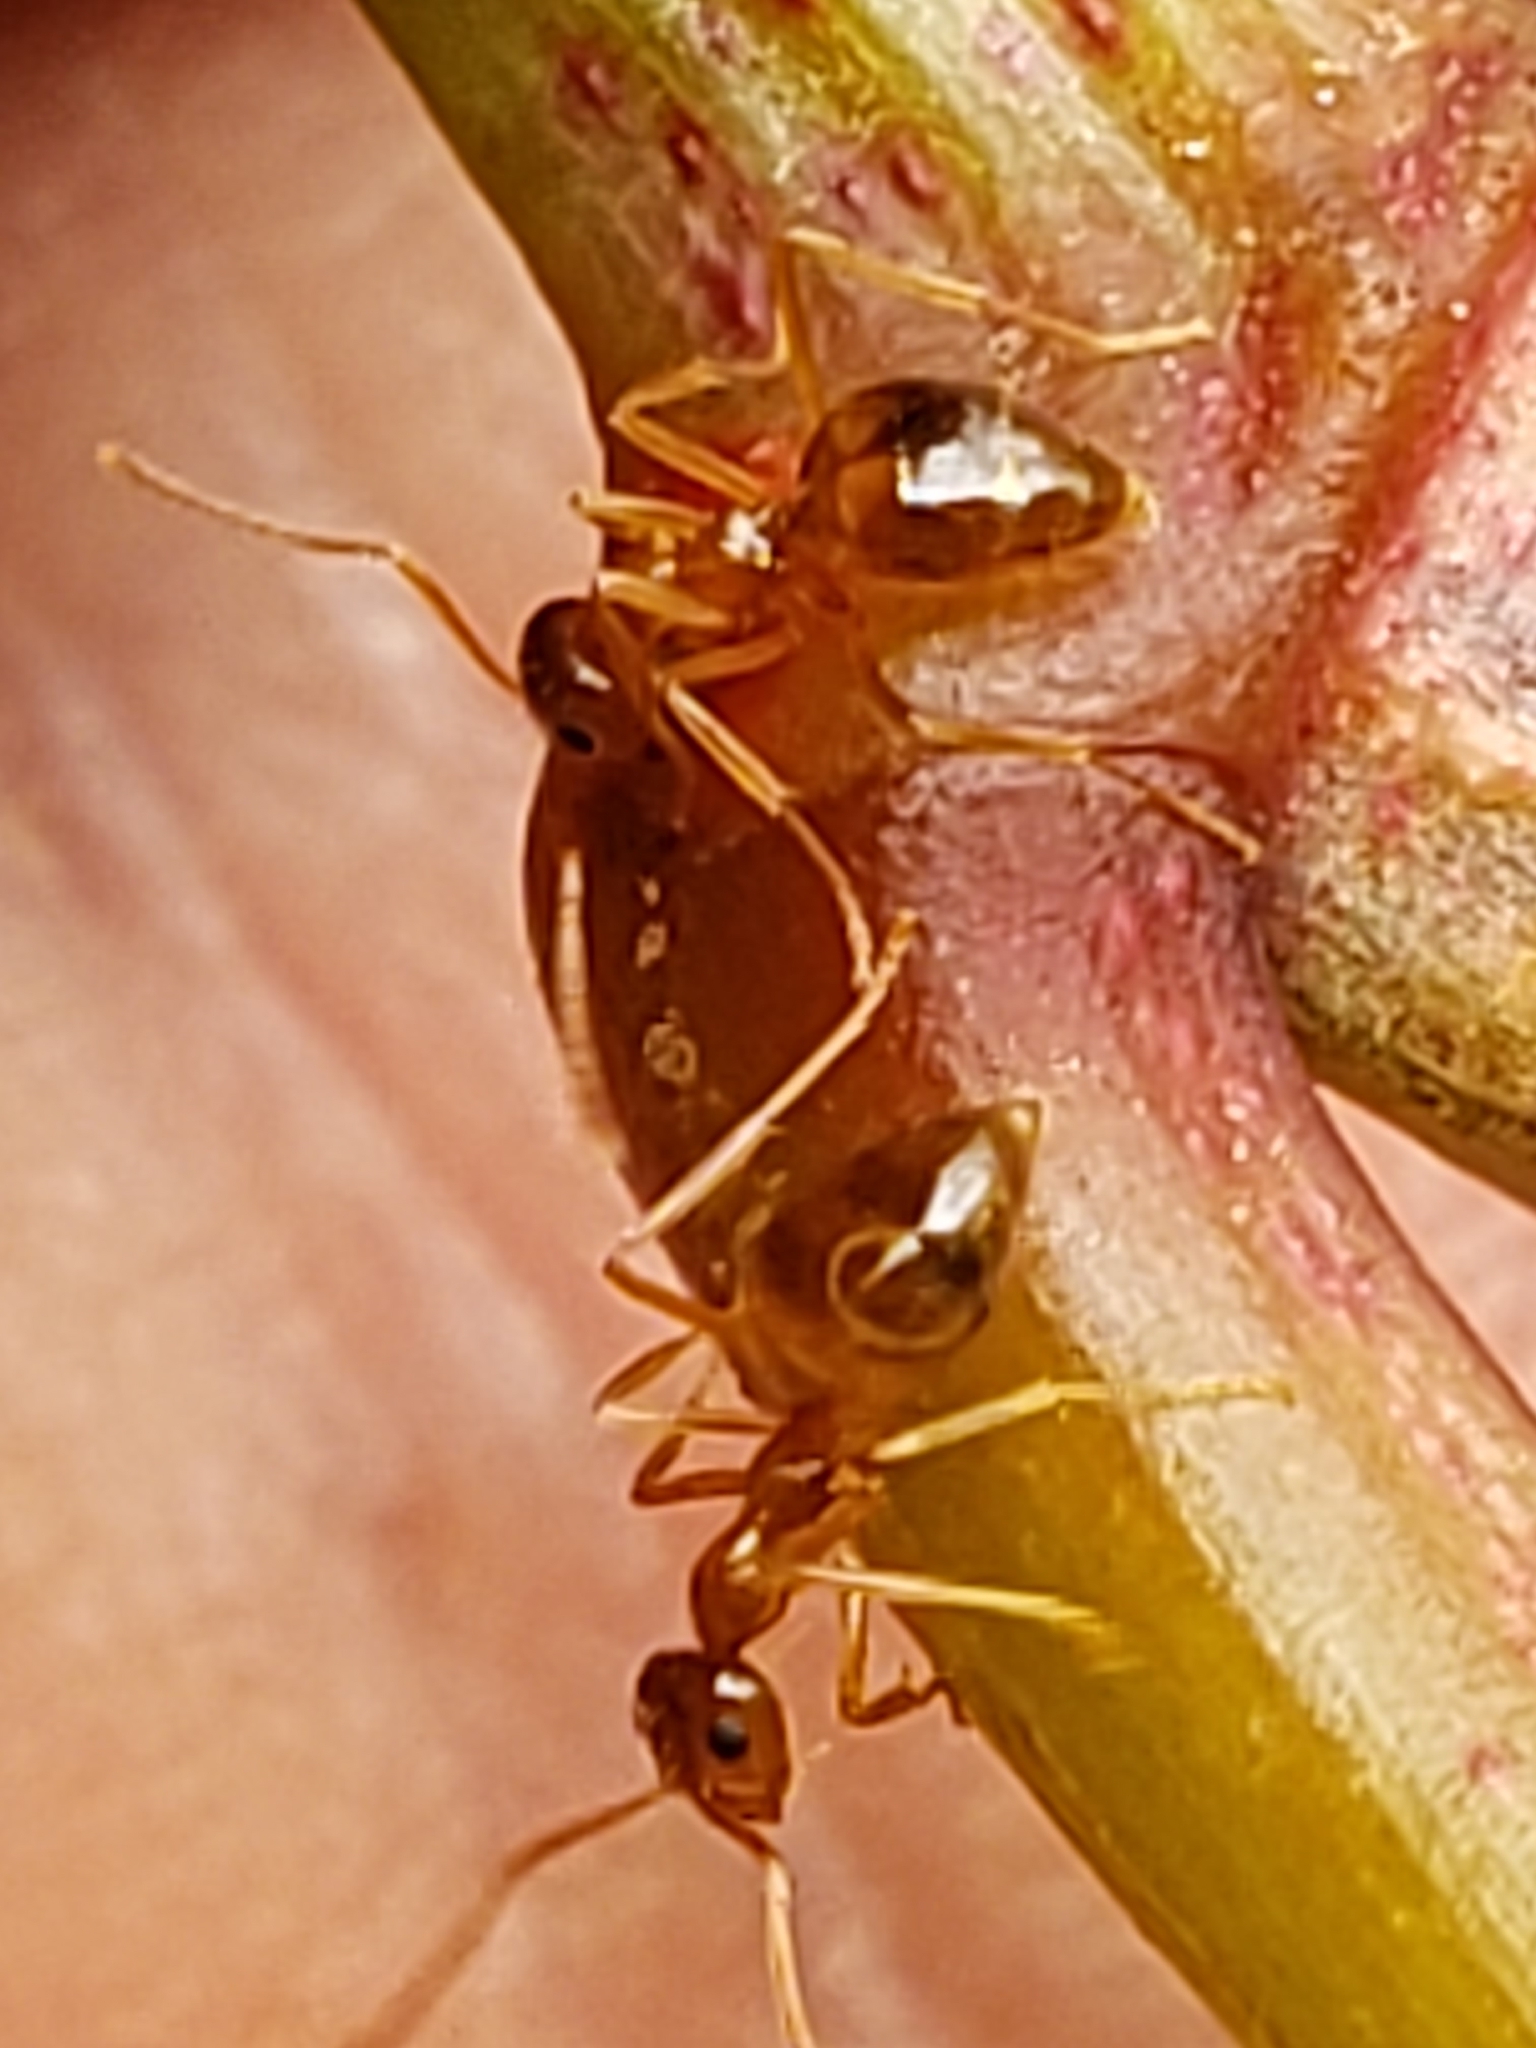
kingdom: Animalia
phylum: Arthropoda
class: Insecta
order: Hymenoptera
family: Formicidae
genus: Prenolepis
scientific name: Prenolepis imparis
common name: Small honey ant
